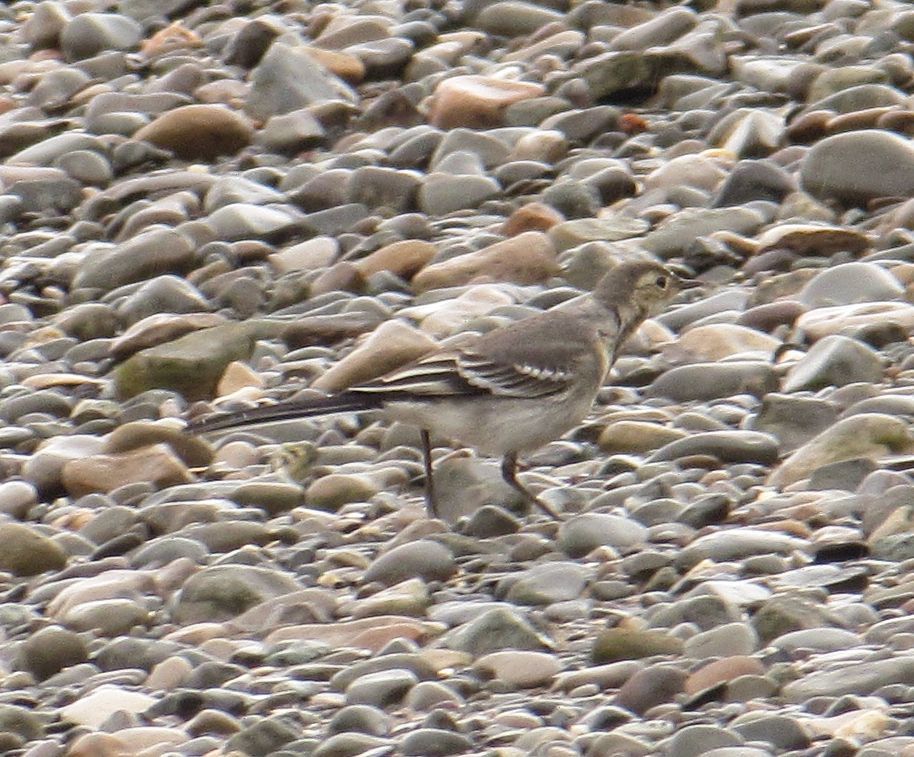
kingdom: Animalia
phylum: Chordata
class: Aves
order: Passeriformes
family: Motacillidae
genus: Motacilla
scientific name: Motacilla alba
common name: White wagtail
